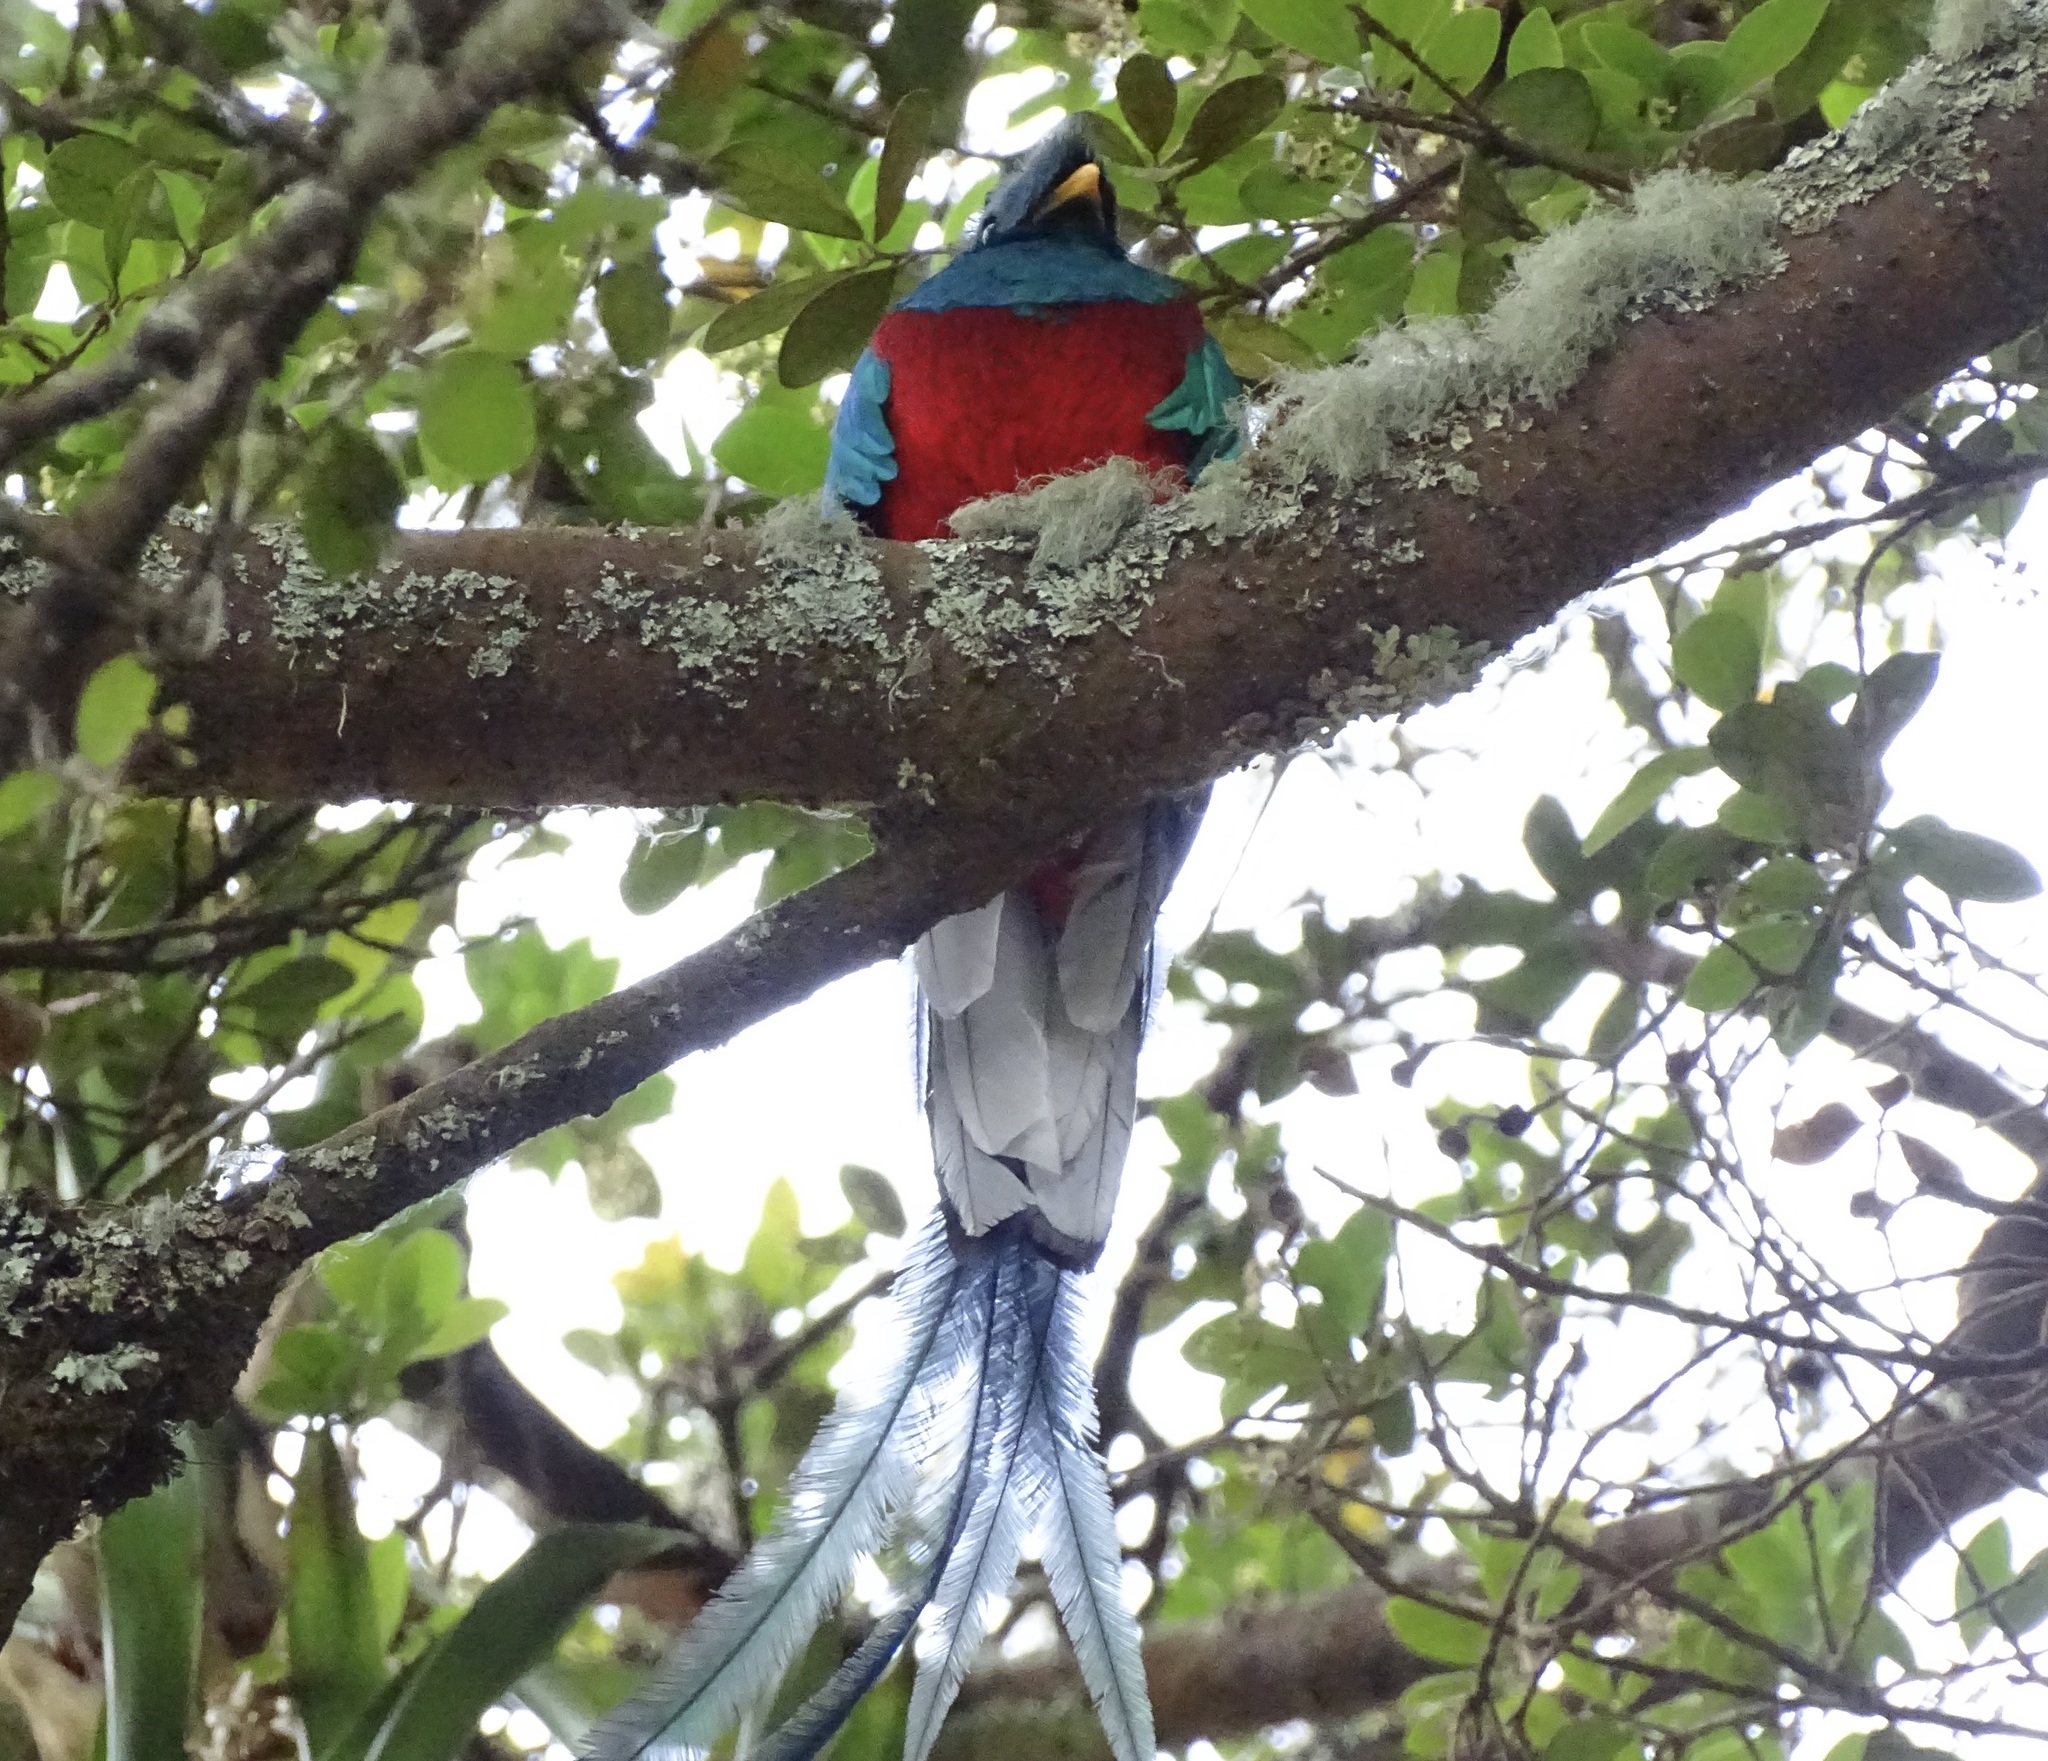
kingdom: Animalia
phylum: Chordata
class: Aves
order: Trogoniformes
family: Trogonidae
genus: Pharomachrus
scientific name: Pharomachrus mocinno
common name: Resplendent quetzal
